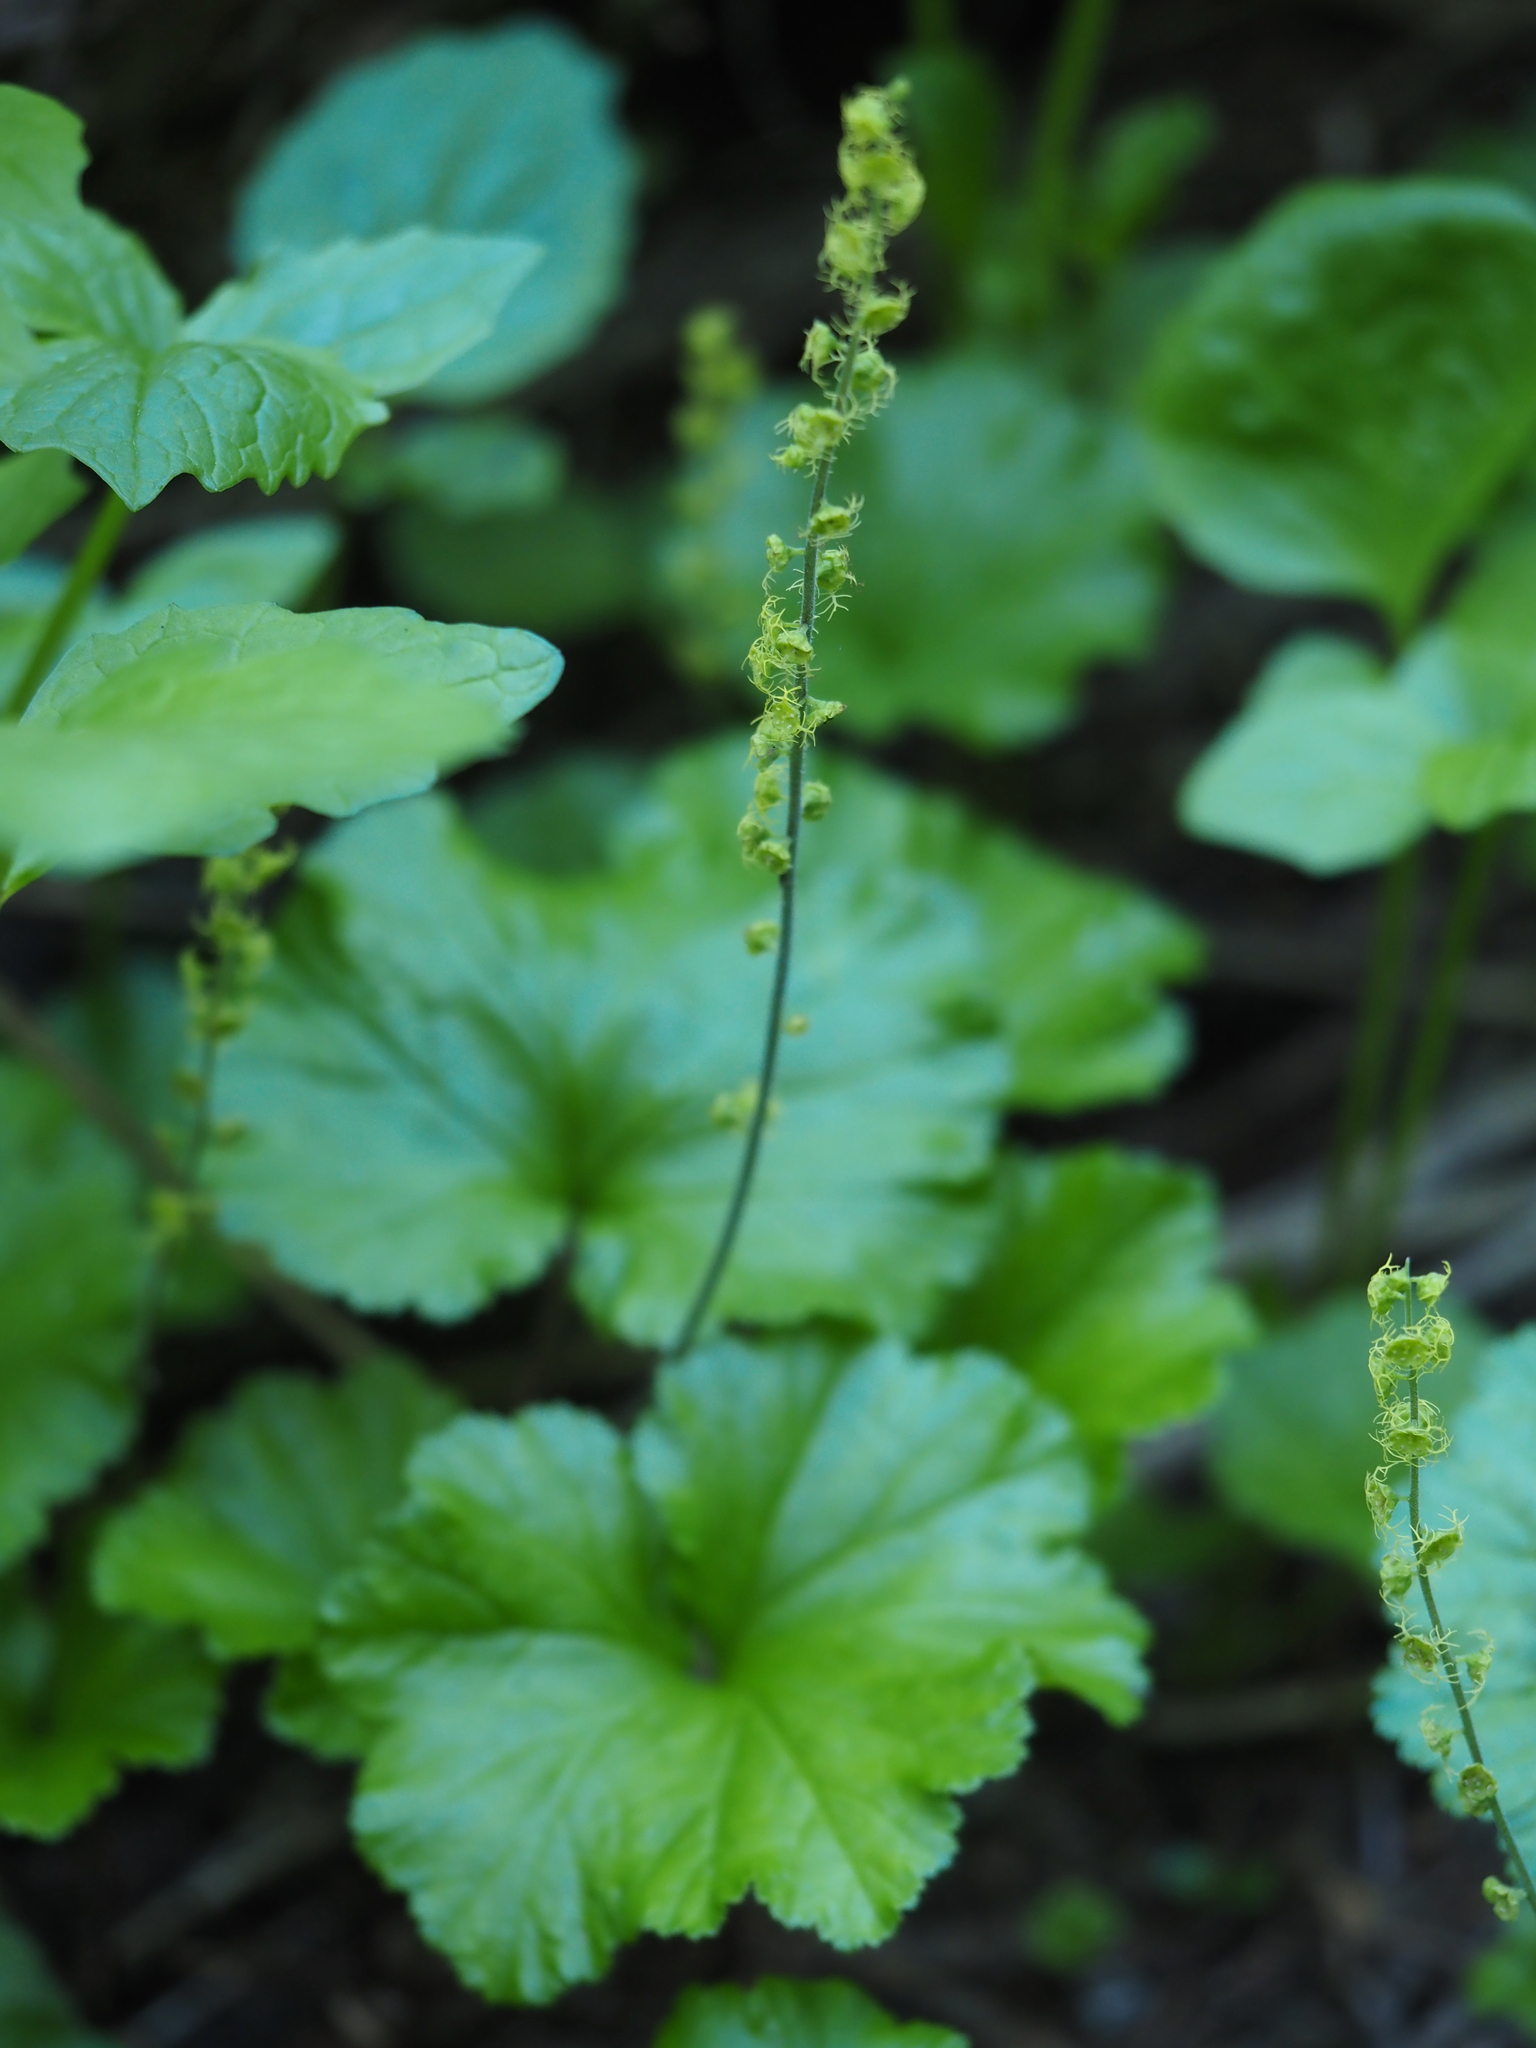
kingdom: Plantae
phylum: Tracheophyta
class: Magnoliopsida
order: Saxifragales
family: Saxifragaceae
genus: Brewerimitella
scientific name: Brewerimitella breweri
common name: Brewer's bishop's-cap
